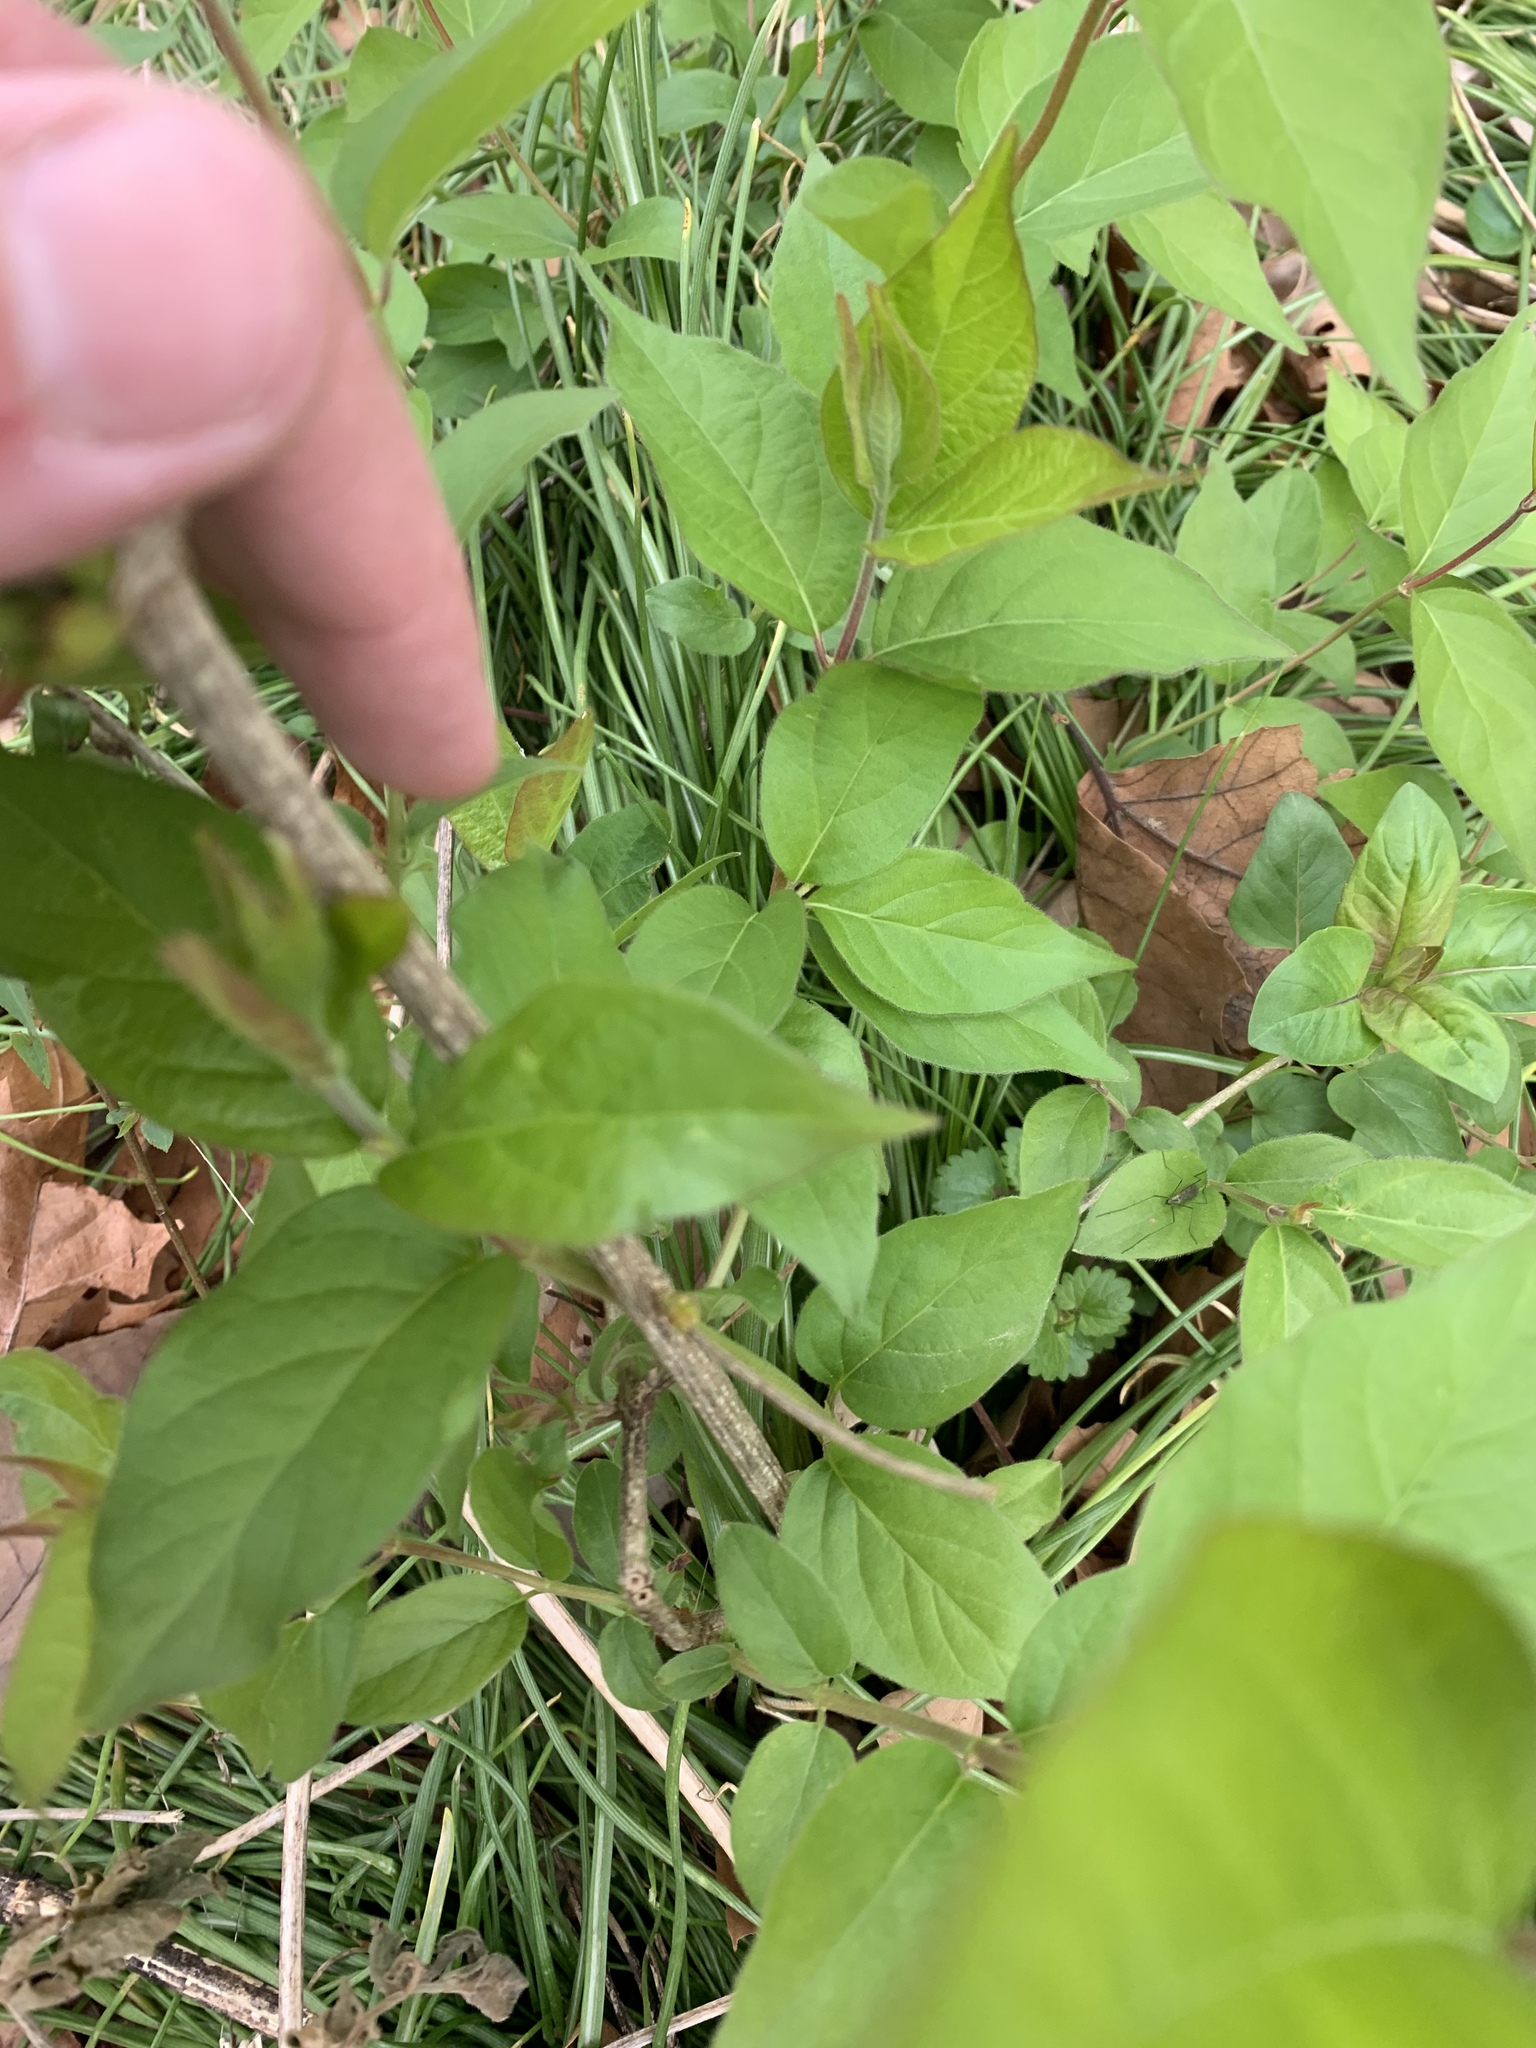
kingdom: Plantae
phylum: Tracheophyta
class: Magnoliopsida
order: Dipsacales
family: Caprifoliaceae
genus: Lonicera
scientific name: Lonicera maackii
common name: Amur honeysuckle
